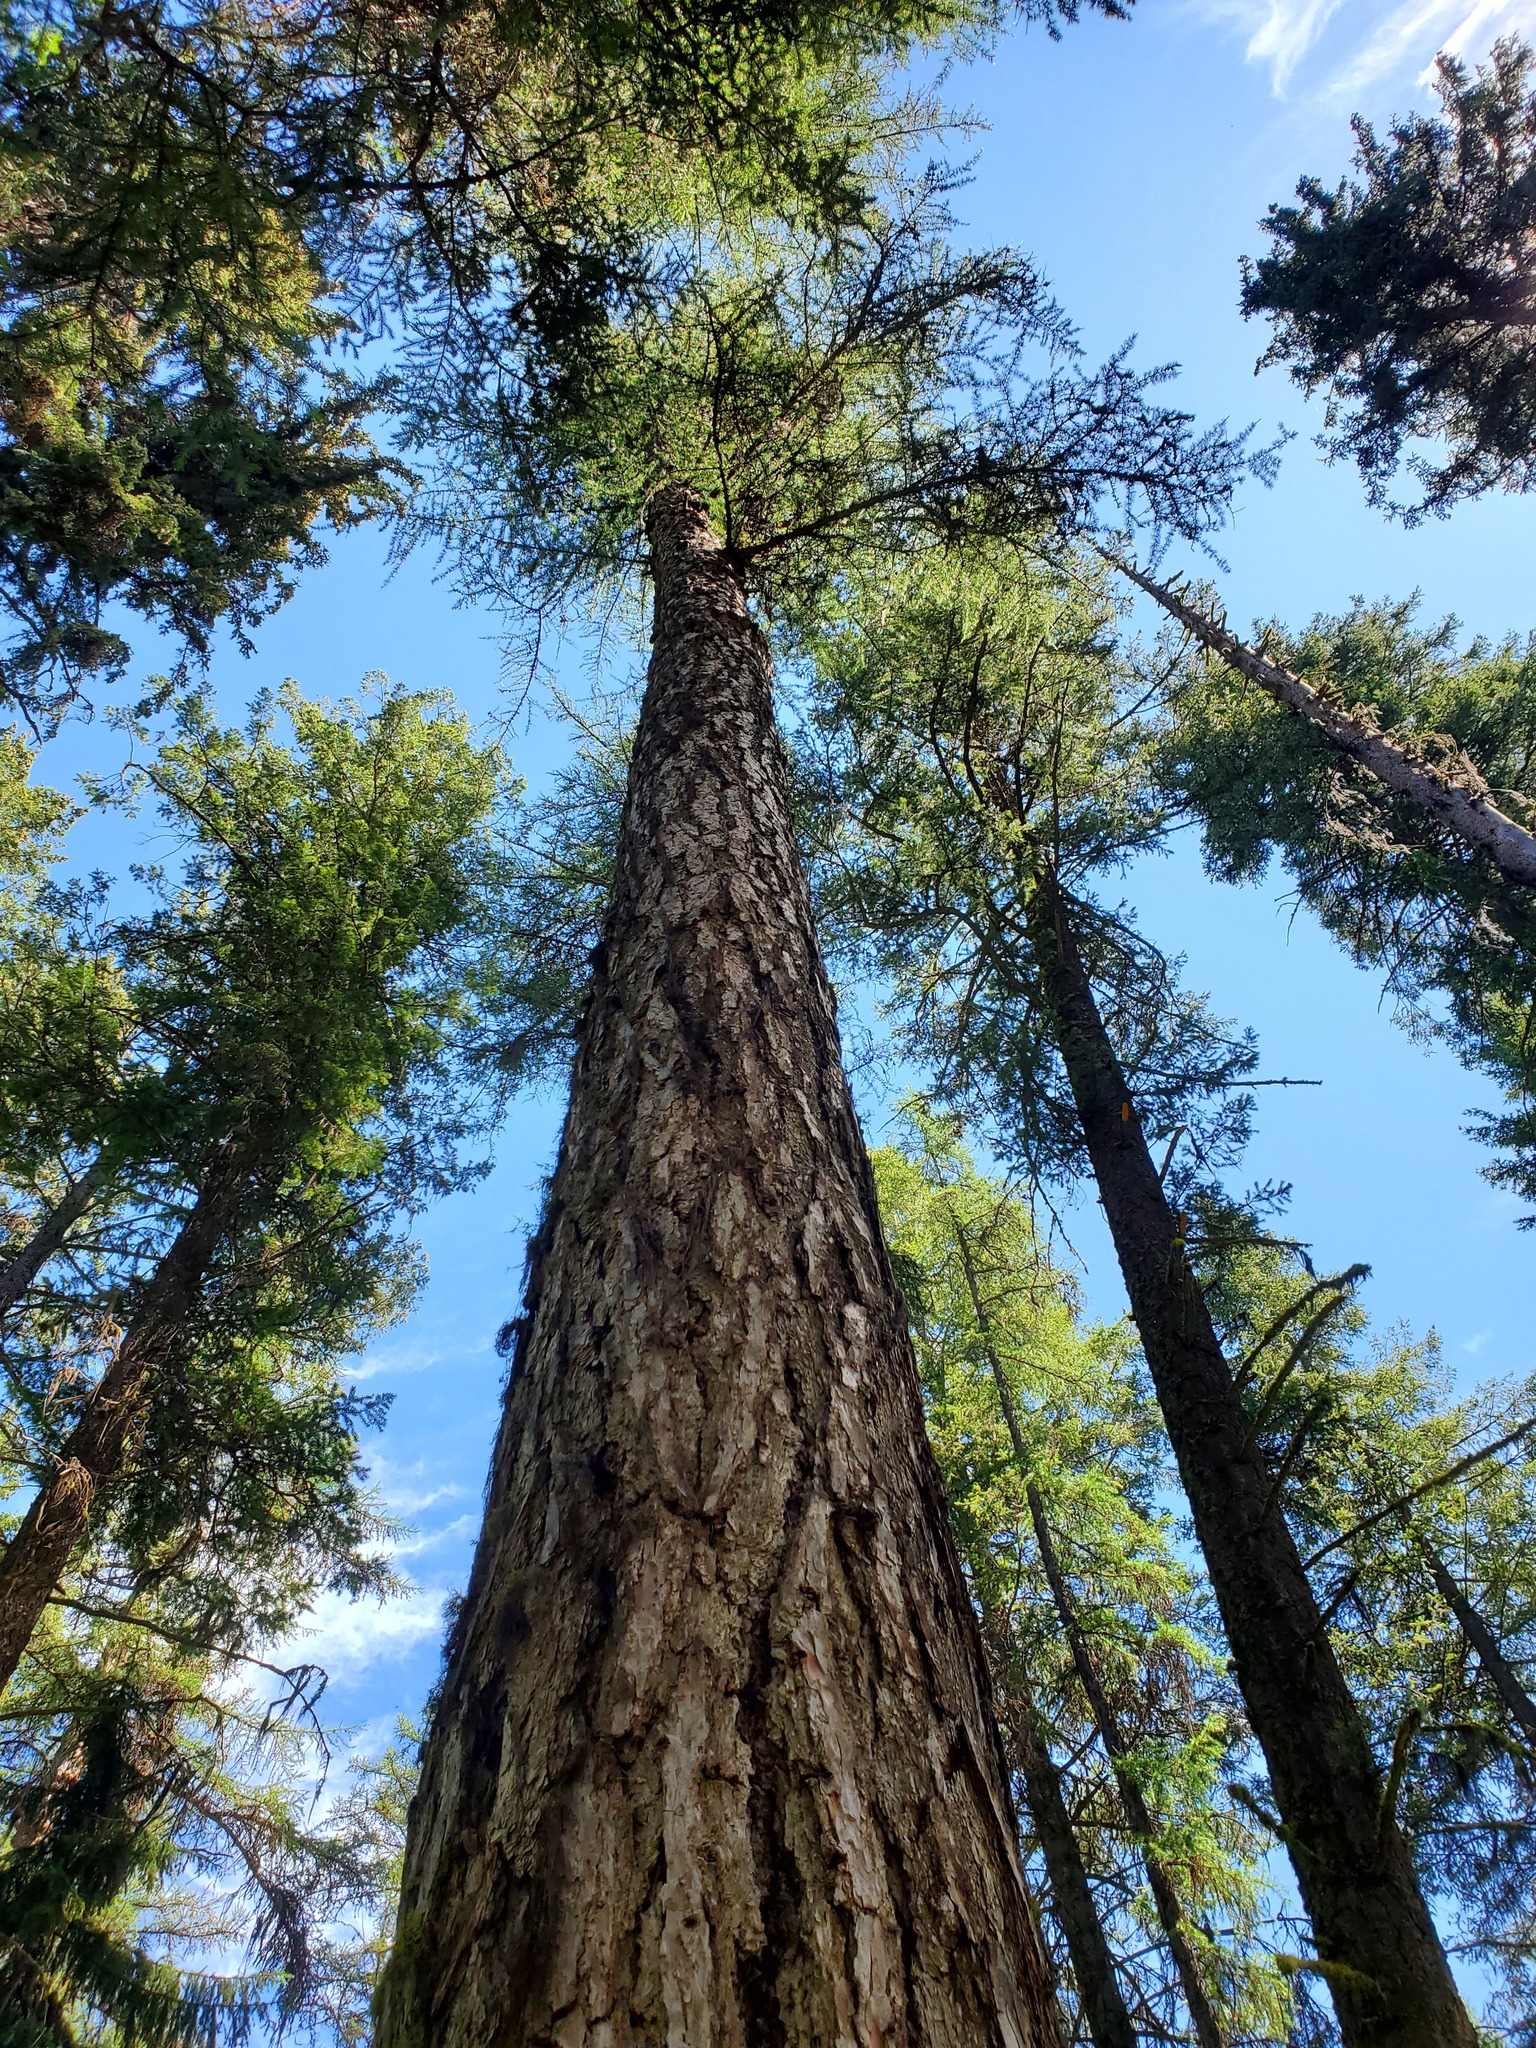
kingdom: Plantae
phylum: Tracheophyta
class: Pinopsida
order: Pinales
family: Pinaceae
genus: Larix
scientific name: Larix occidentalis
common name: Western larch
